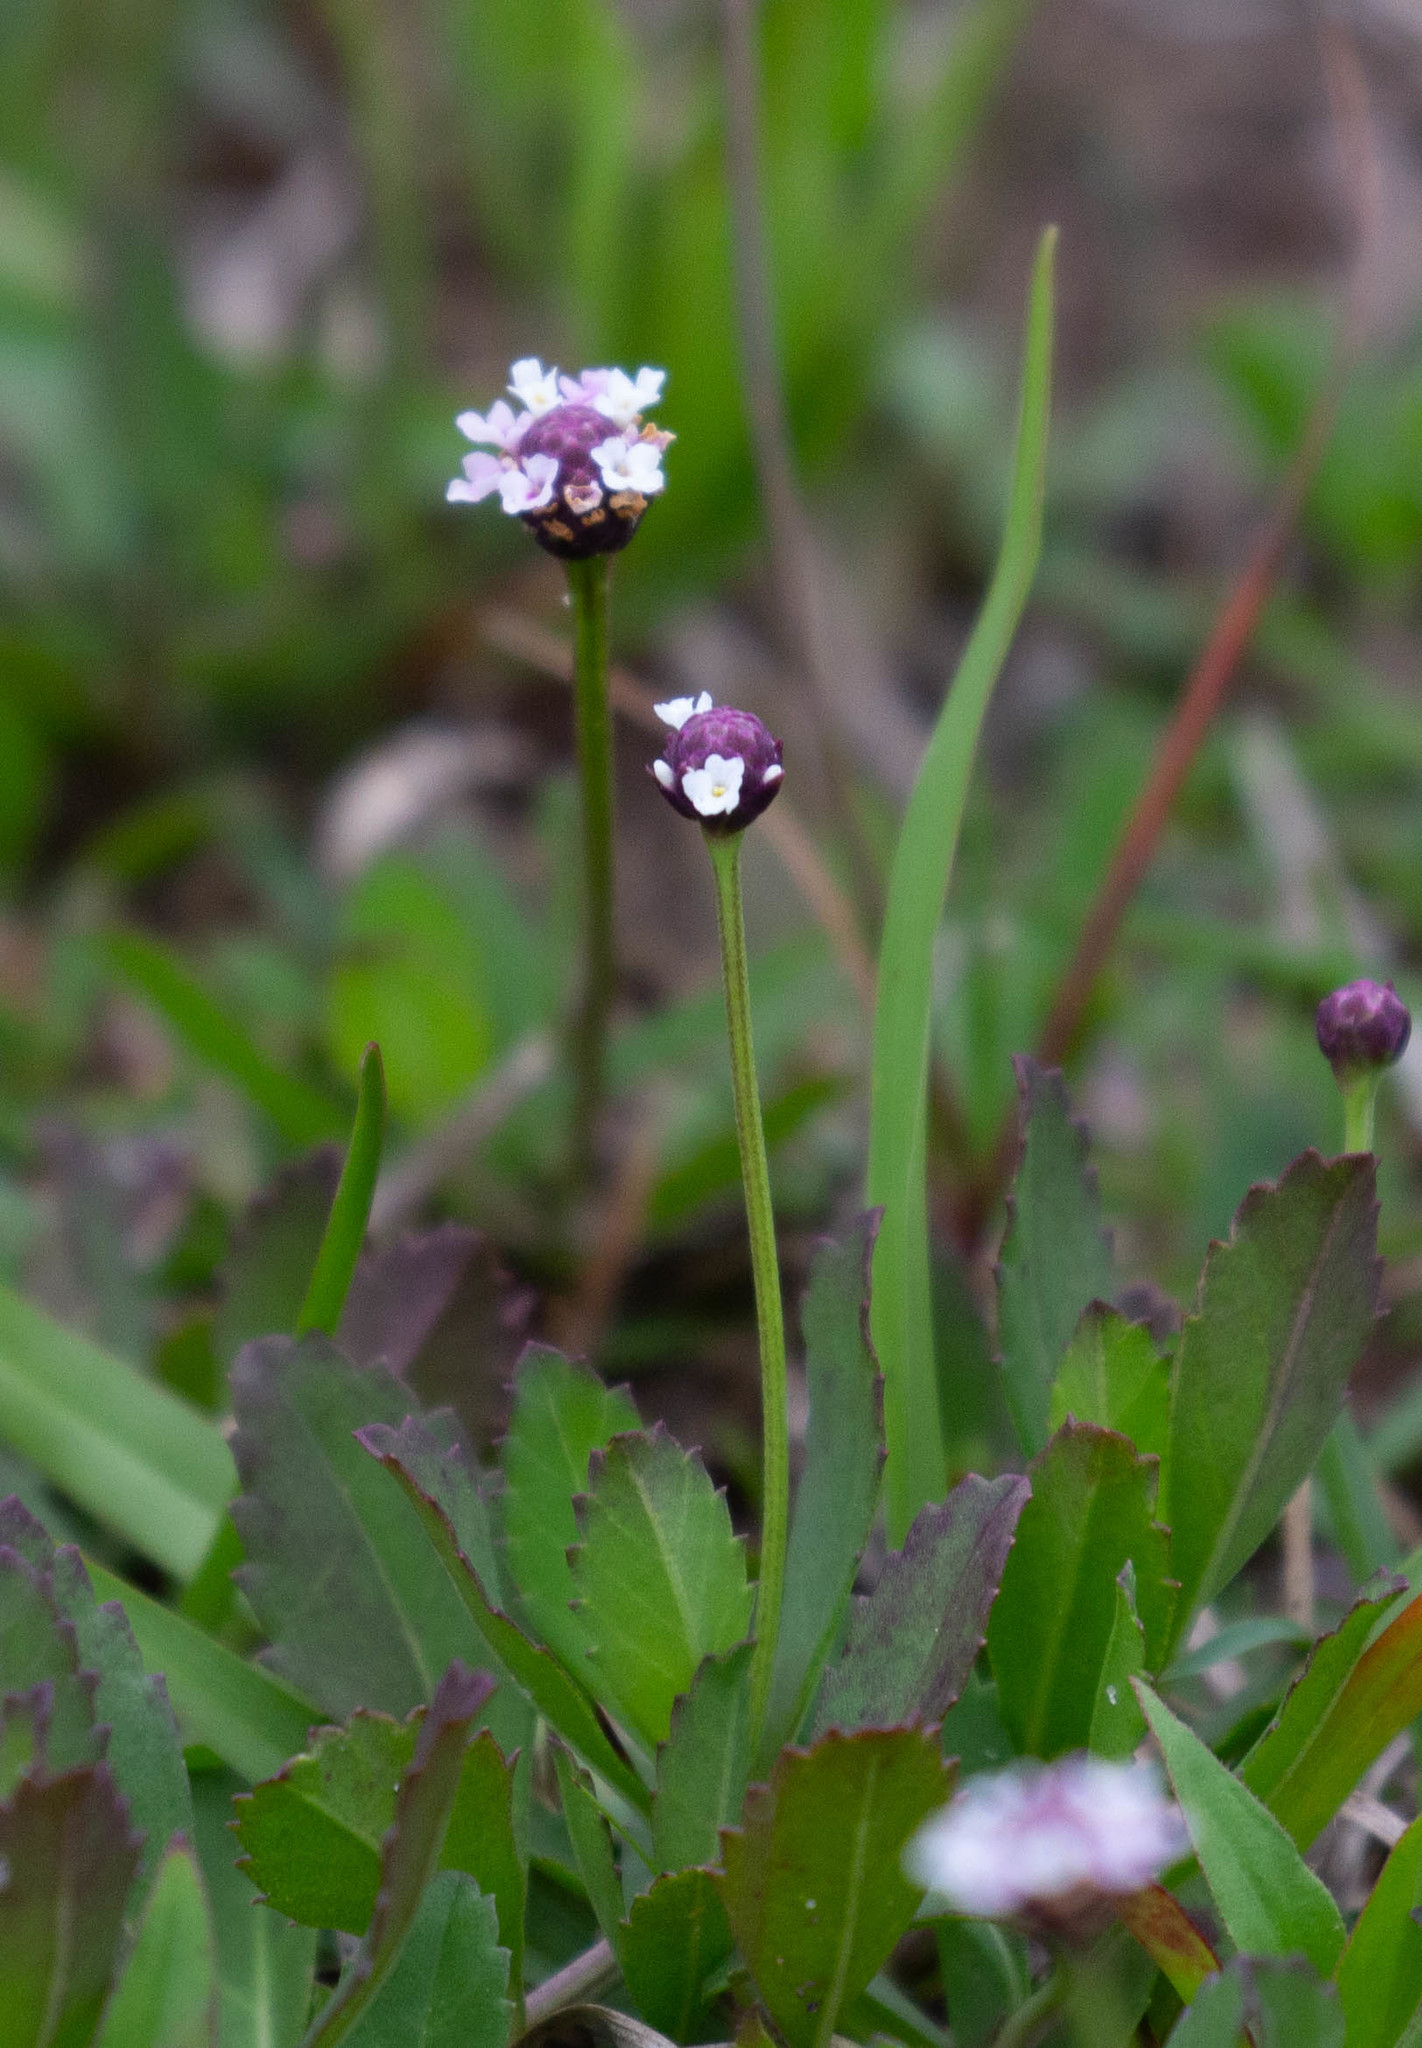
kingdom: Plantae
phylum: Tracheophyta
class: Magnoliopsida
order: Lamiales
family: Verbenaceae
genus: Phyla
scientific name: Phyla nodiflora
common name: Frogfruit
